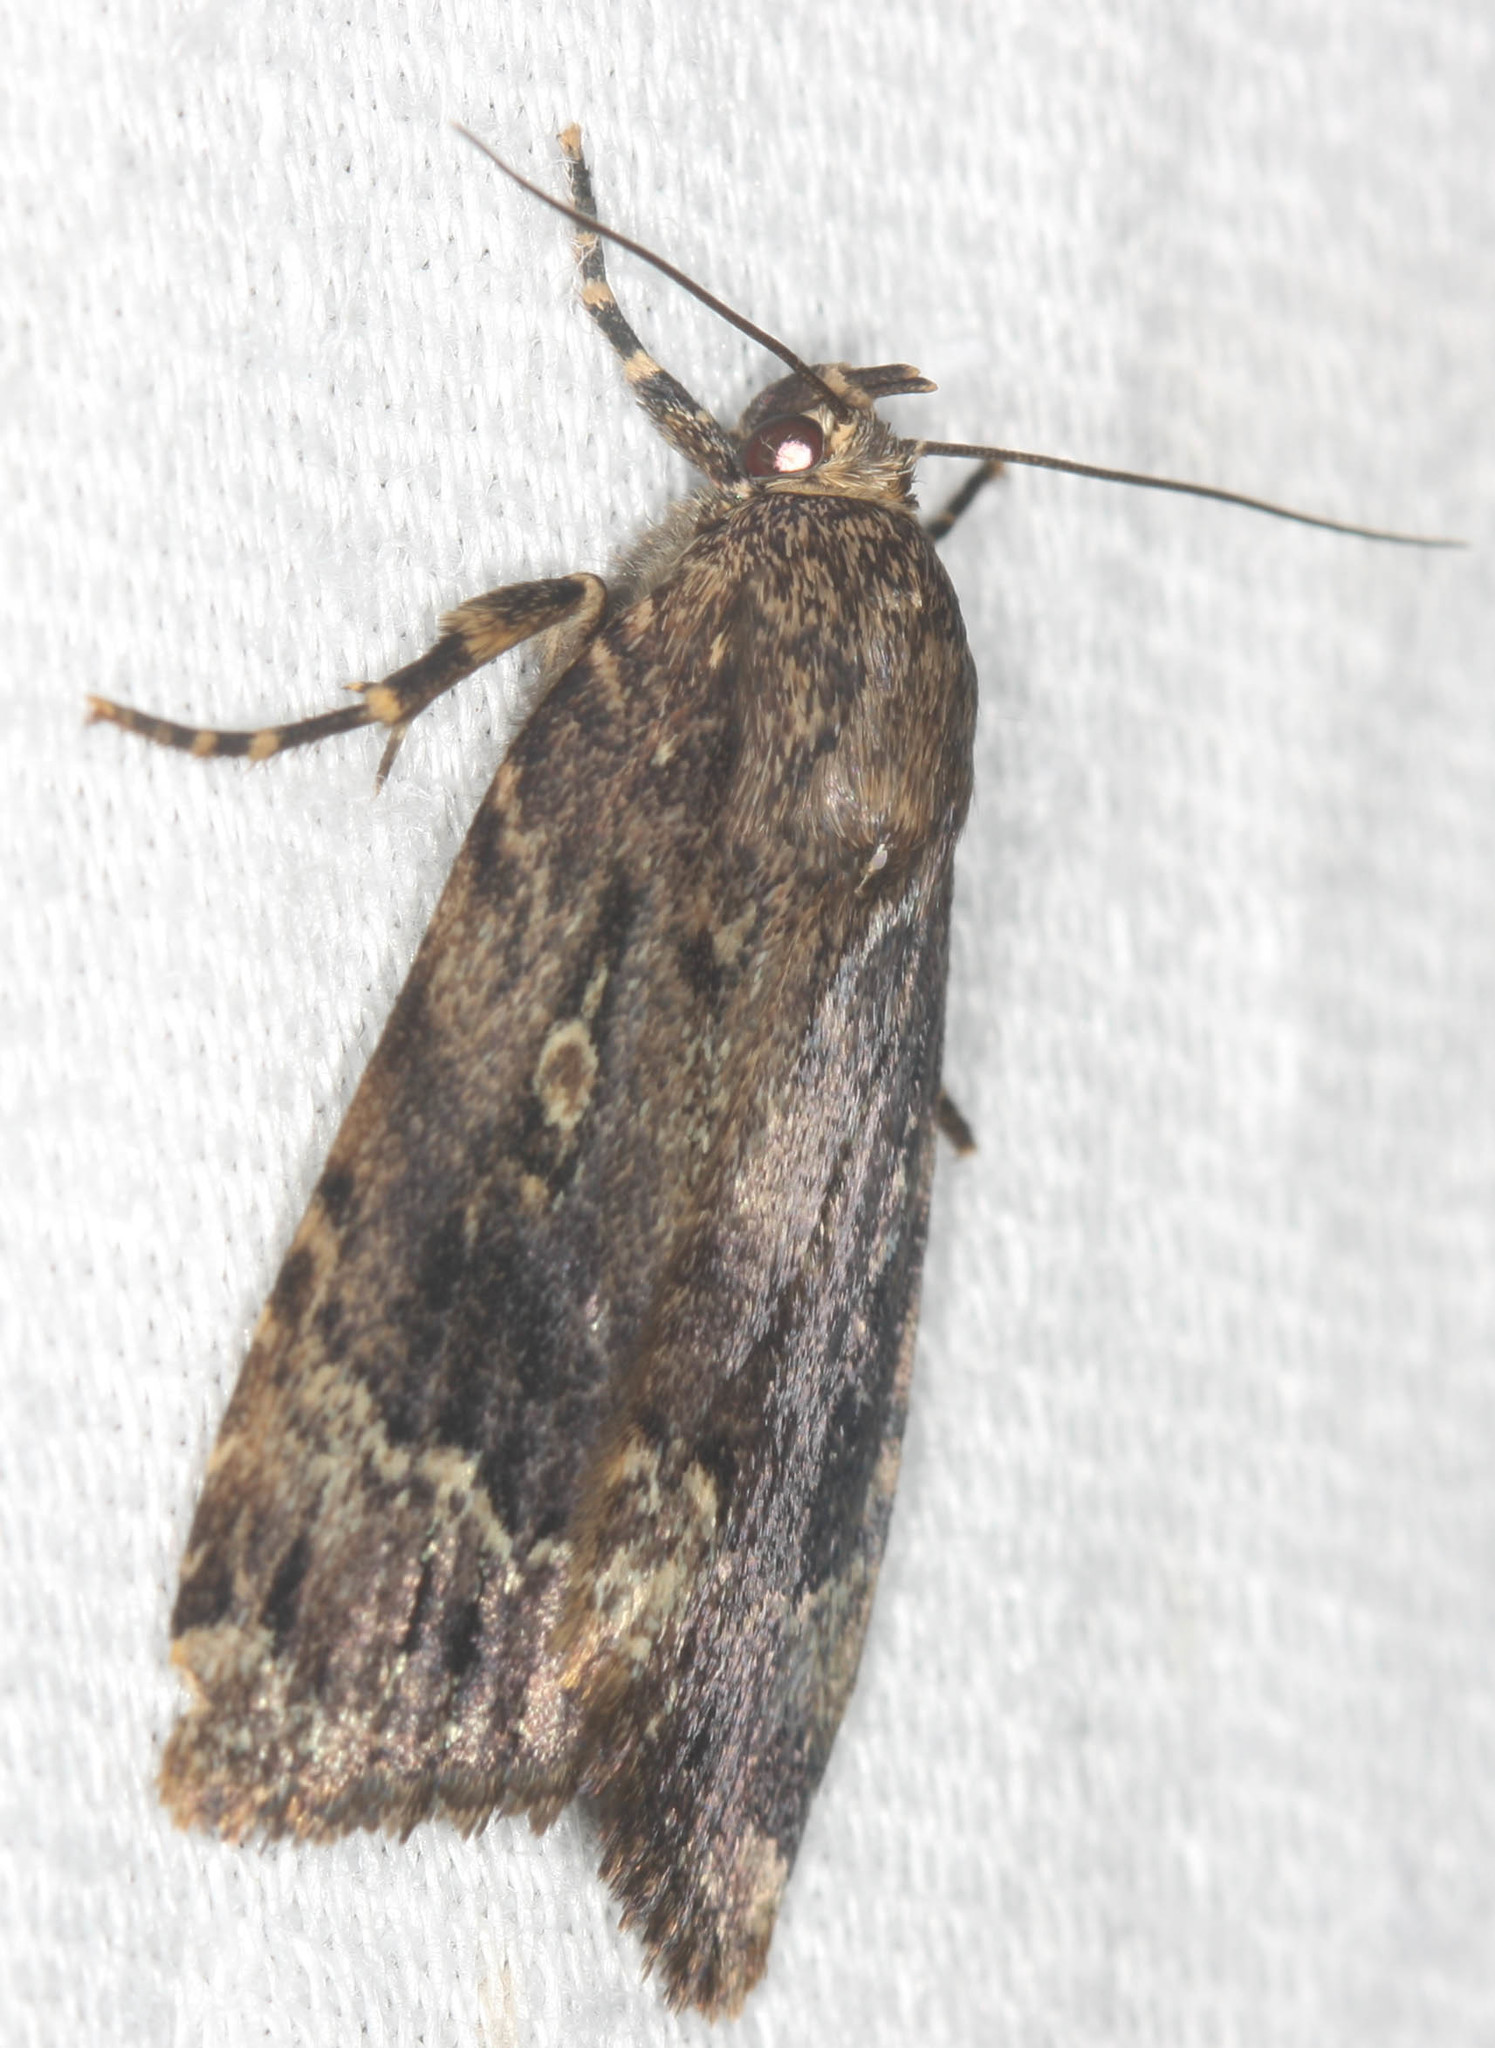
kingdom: Animalia
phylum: Arthropoda
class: Insecta
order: Lepidoptera
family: Noctuidae
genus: Amphipyra
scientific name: Amphipyra pyramidoides
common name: American copper underwing
